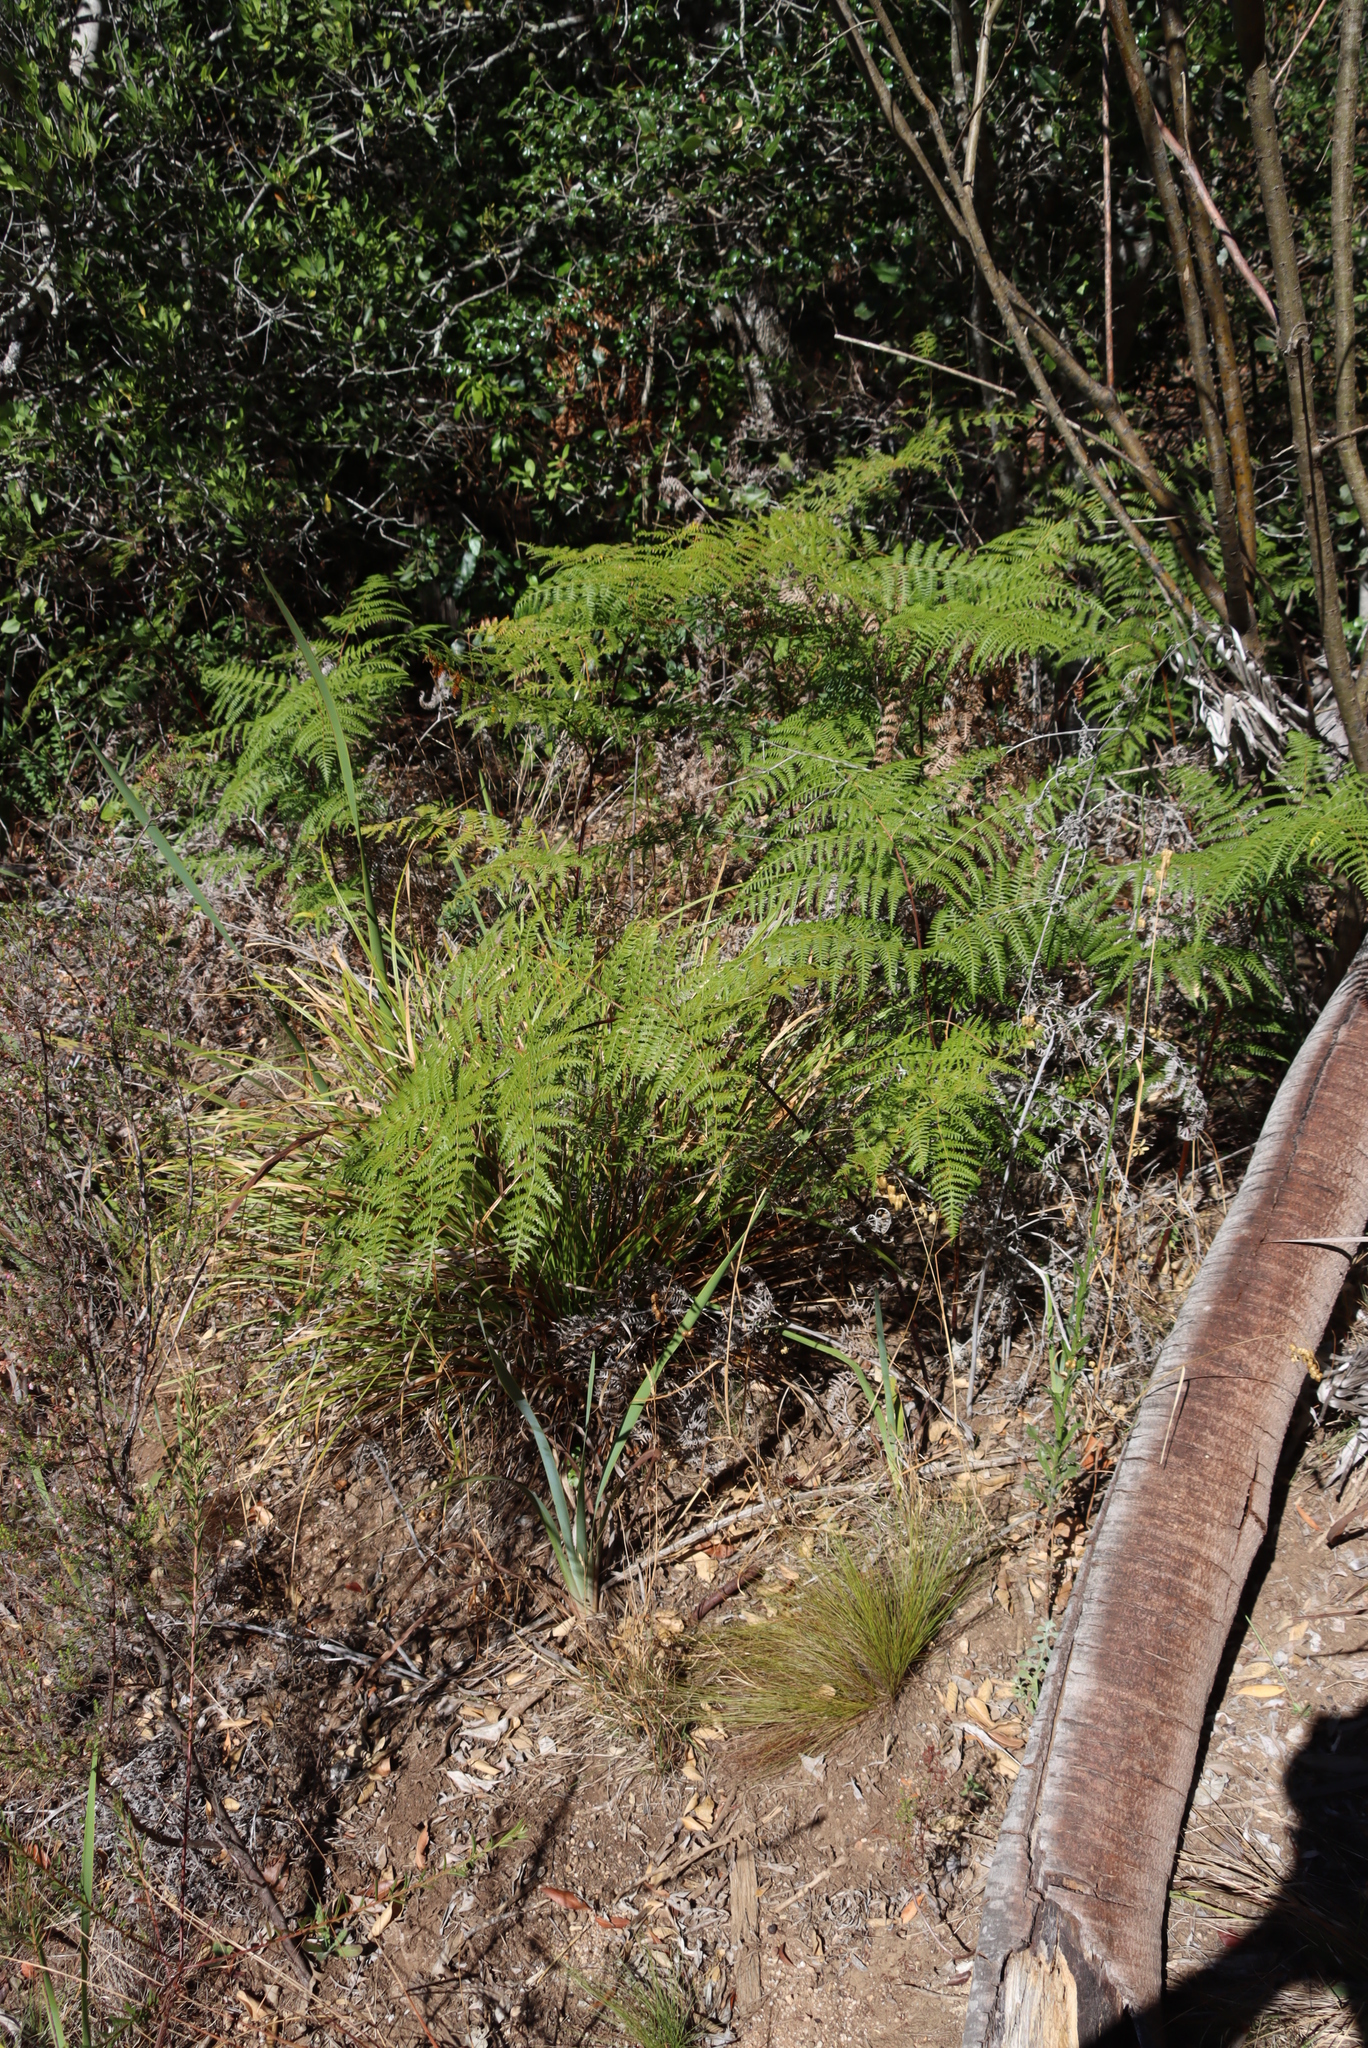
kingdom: Plantae
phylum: Tracheophyta
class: Polypodiopsida
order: Polypodiales
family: Dennstaedtiaceae
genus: Pteridium
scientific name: Pteridium aquilinum
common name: Bracken
